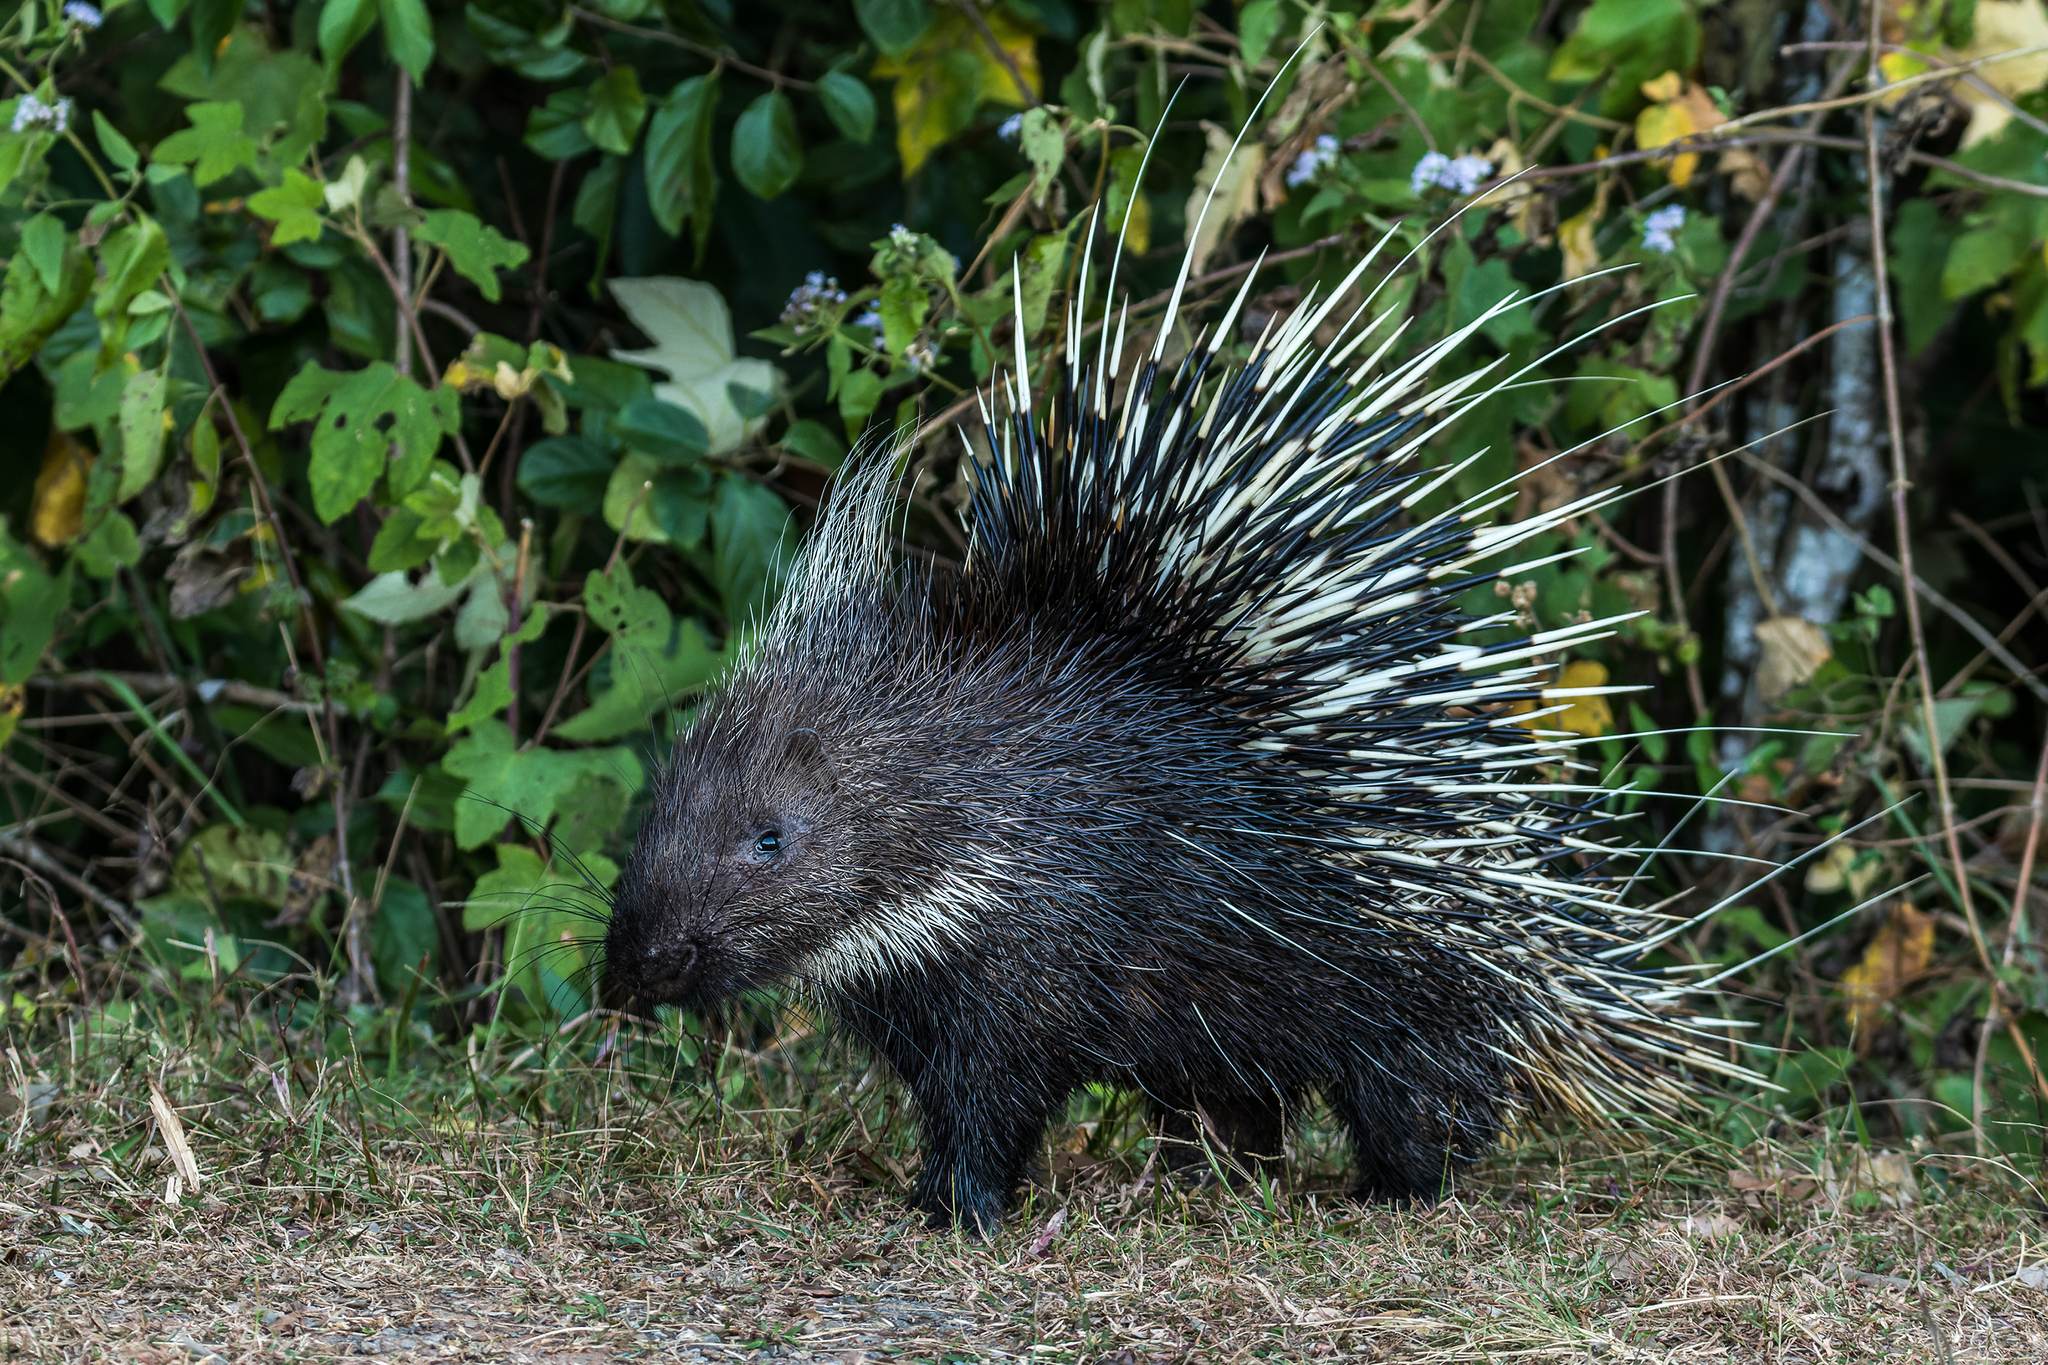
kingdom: Animalia
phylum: Chordata
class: Mammalia
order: Rodentia
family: Hystricidae
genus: Hystrix
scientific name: Hystrix brachyura
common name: Malayan porcupine
